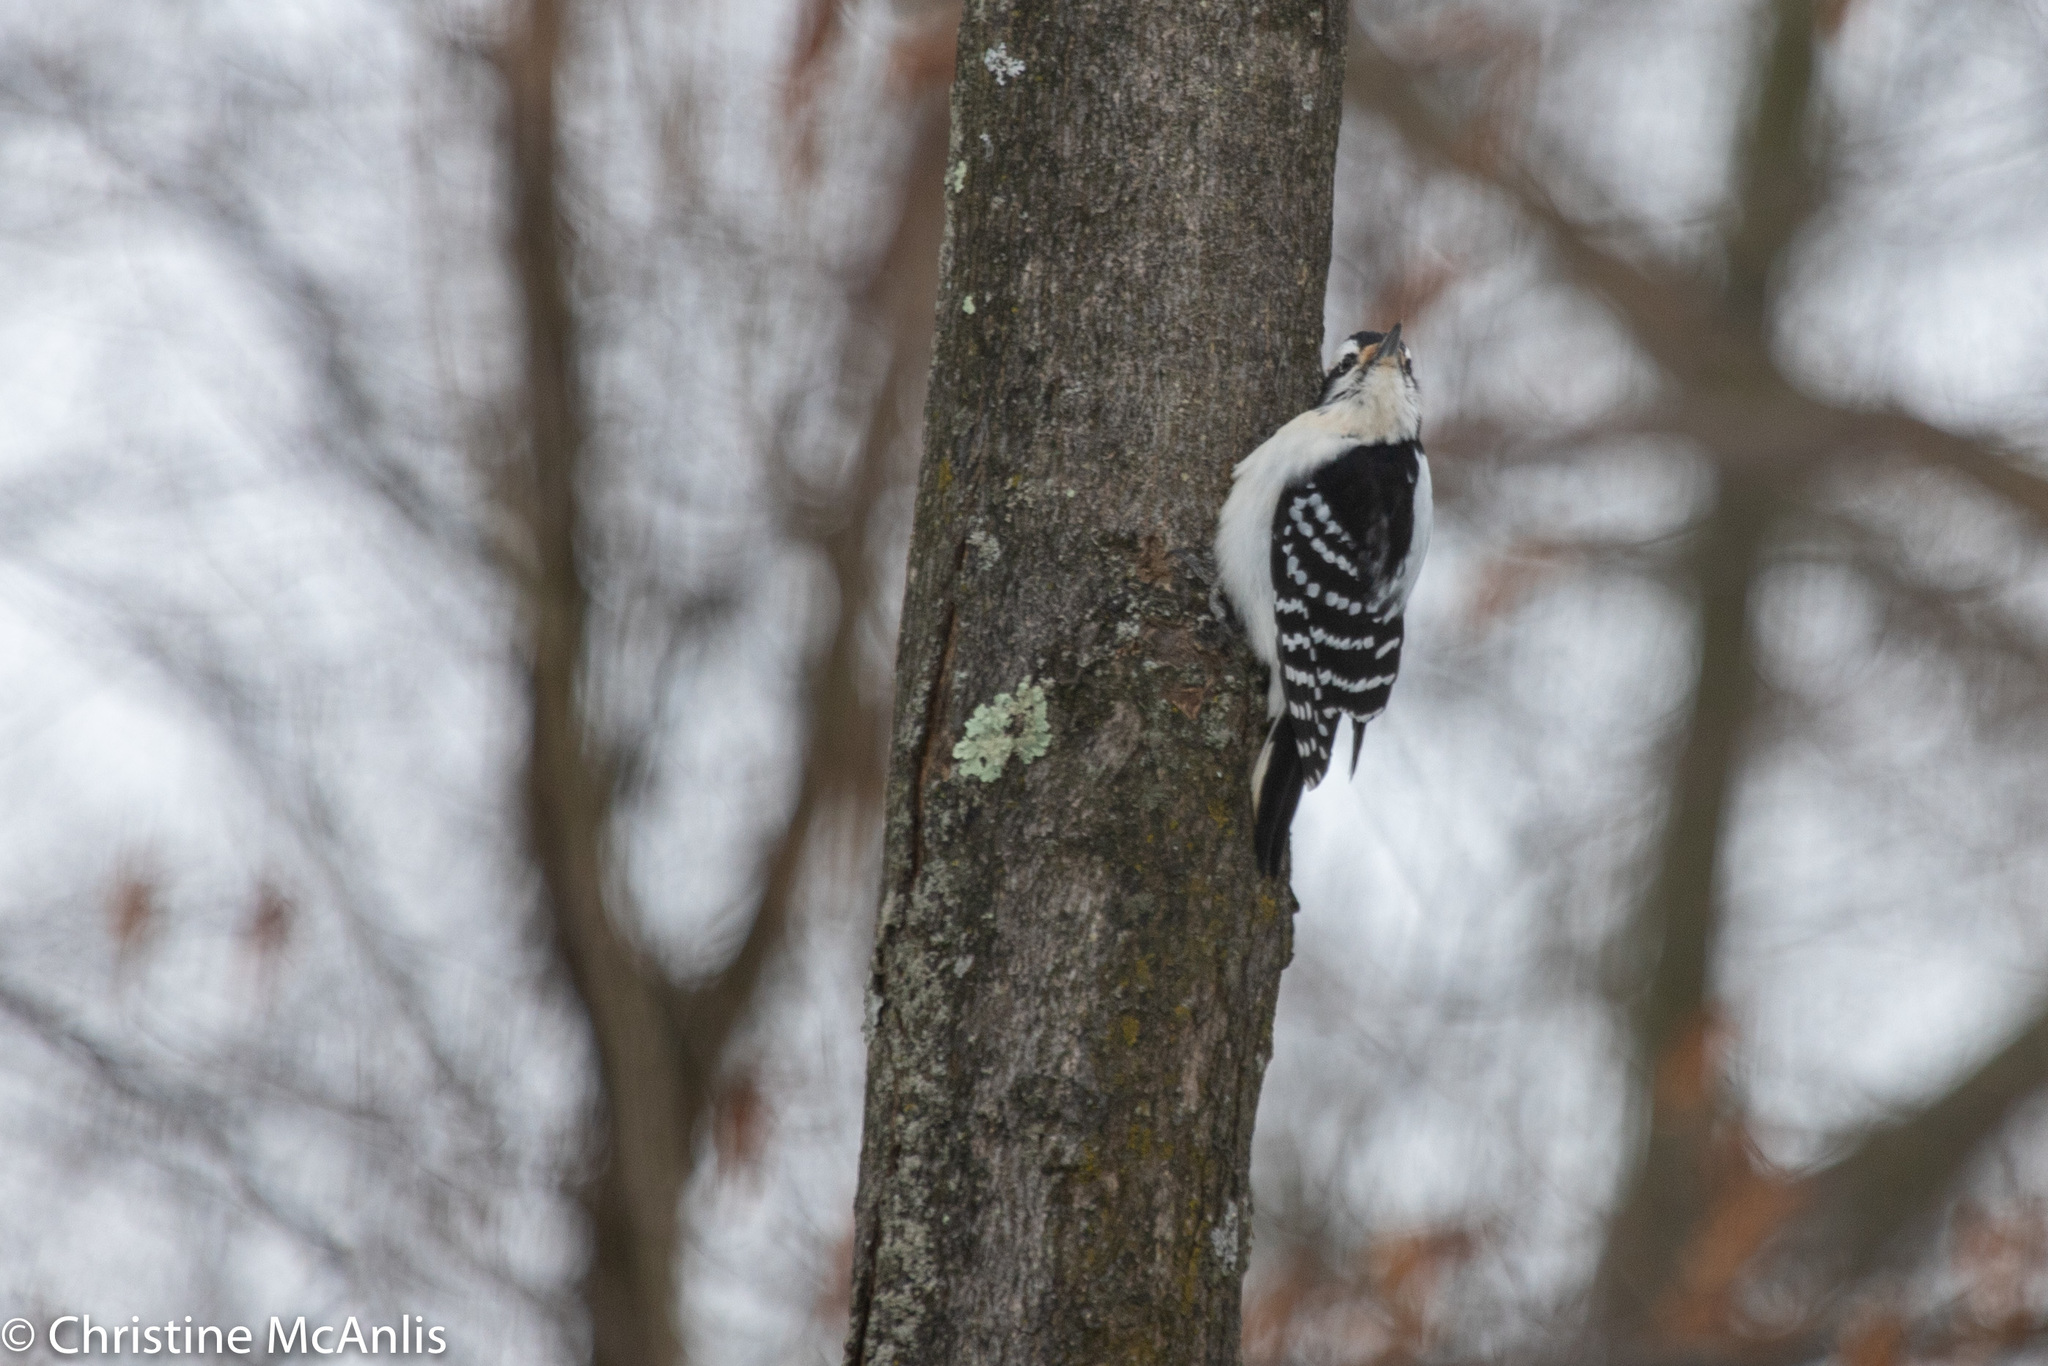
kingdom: Animalia
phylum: Chordata
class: Aves
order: Piciformes
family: Picidae
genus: Leuconotopicus
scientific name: Leuconotopicus villosus
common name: Hairy woodpecker
